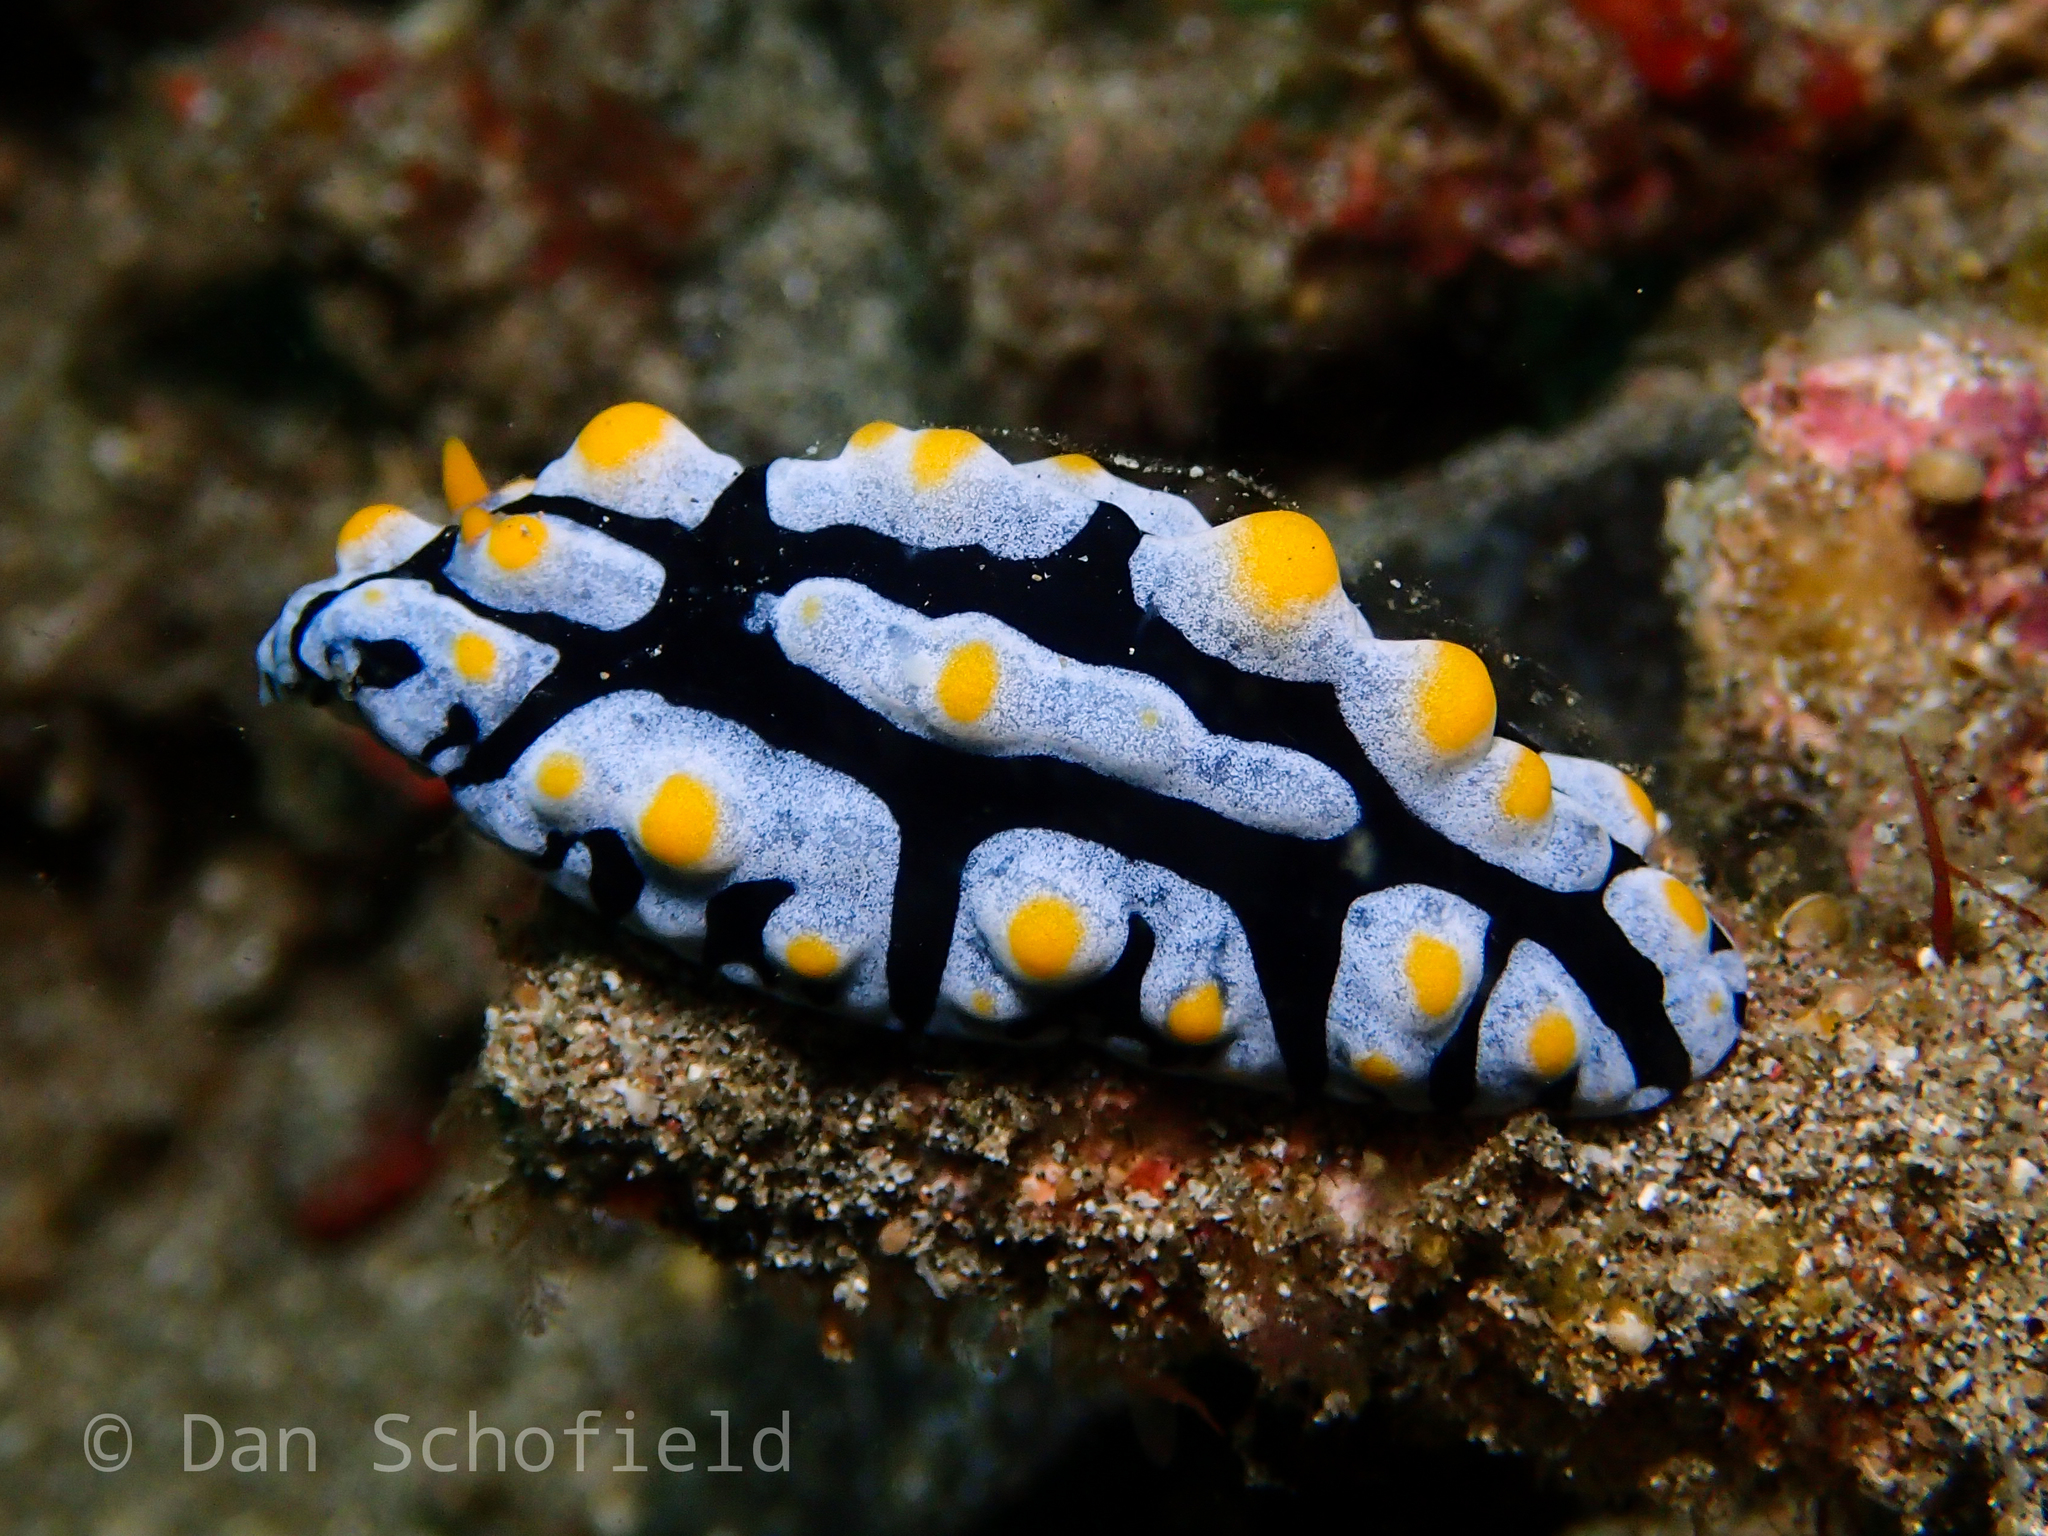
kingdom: Animalia
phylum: Mollusca
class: Gastropoda
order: Nudibranchia
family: Phyllidiidae
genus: Phyllidia
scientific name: Phyllidia varicosa
